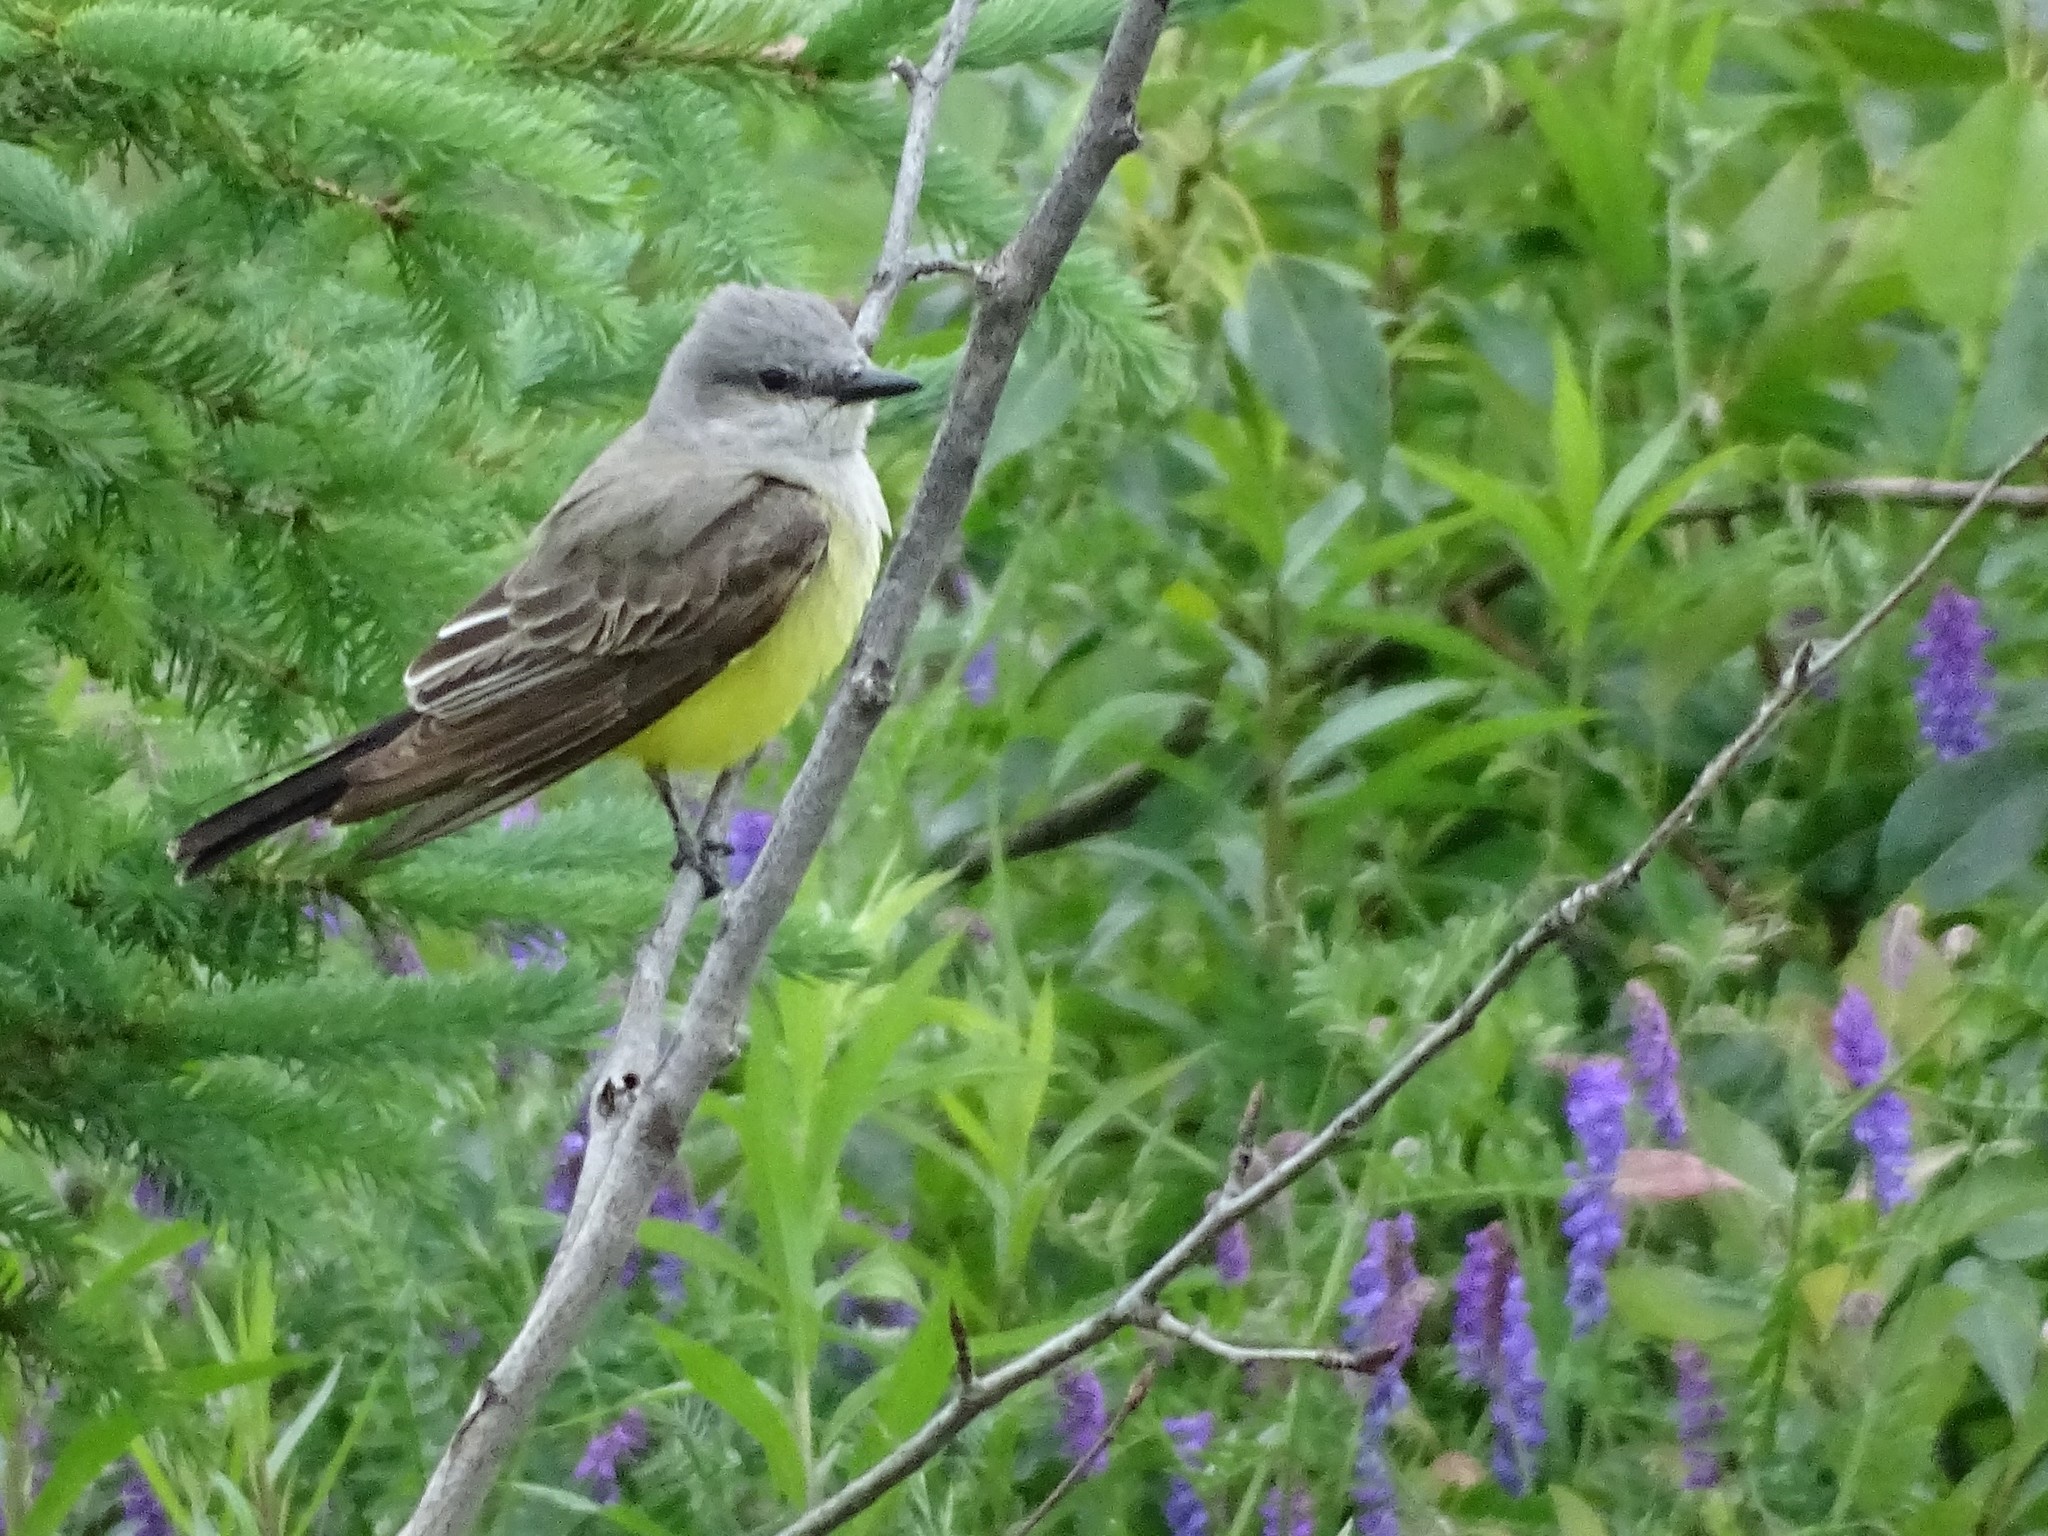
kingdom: Animalia
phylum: Chordata
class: Aves
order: Passeriformes
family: Tyrannidae
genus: Tyrannus
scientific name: Tyrannus verticalis
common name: Western kingbird
